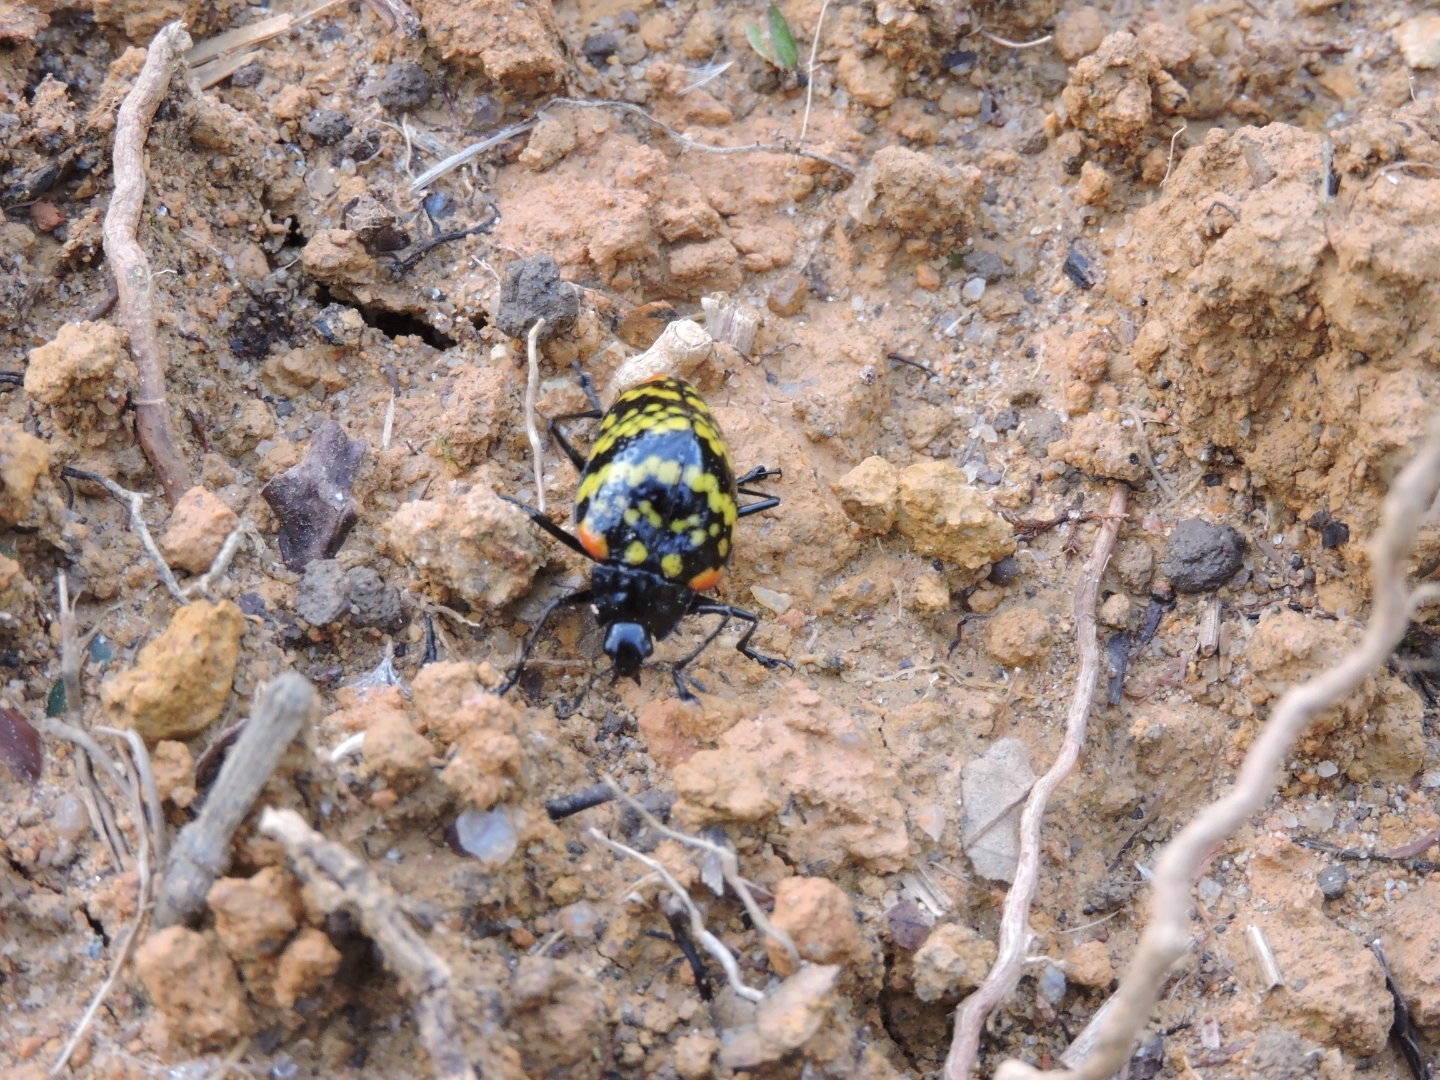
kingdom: Animalia
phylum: Arthropoda
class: Insecta
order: Coleoptera
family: Erotylidae
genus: Erotylus
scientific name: Erotylus histrio
